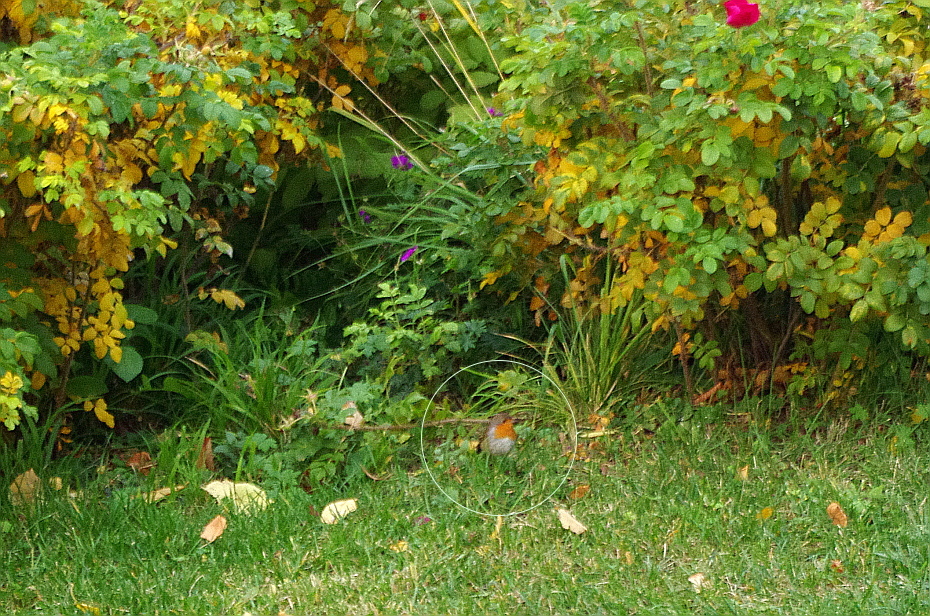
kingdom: Animalia
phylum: Chordata
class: Aves
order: Passeriformes
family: Muscicapidae
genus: Erithacus
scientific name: Erithacus rubecula
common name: European robin
